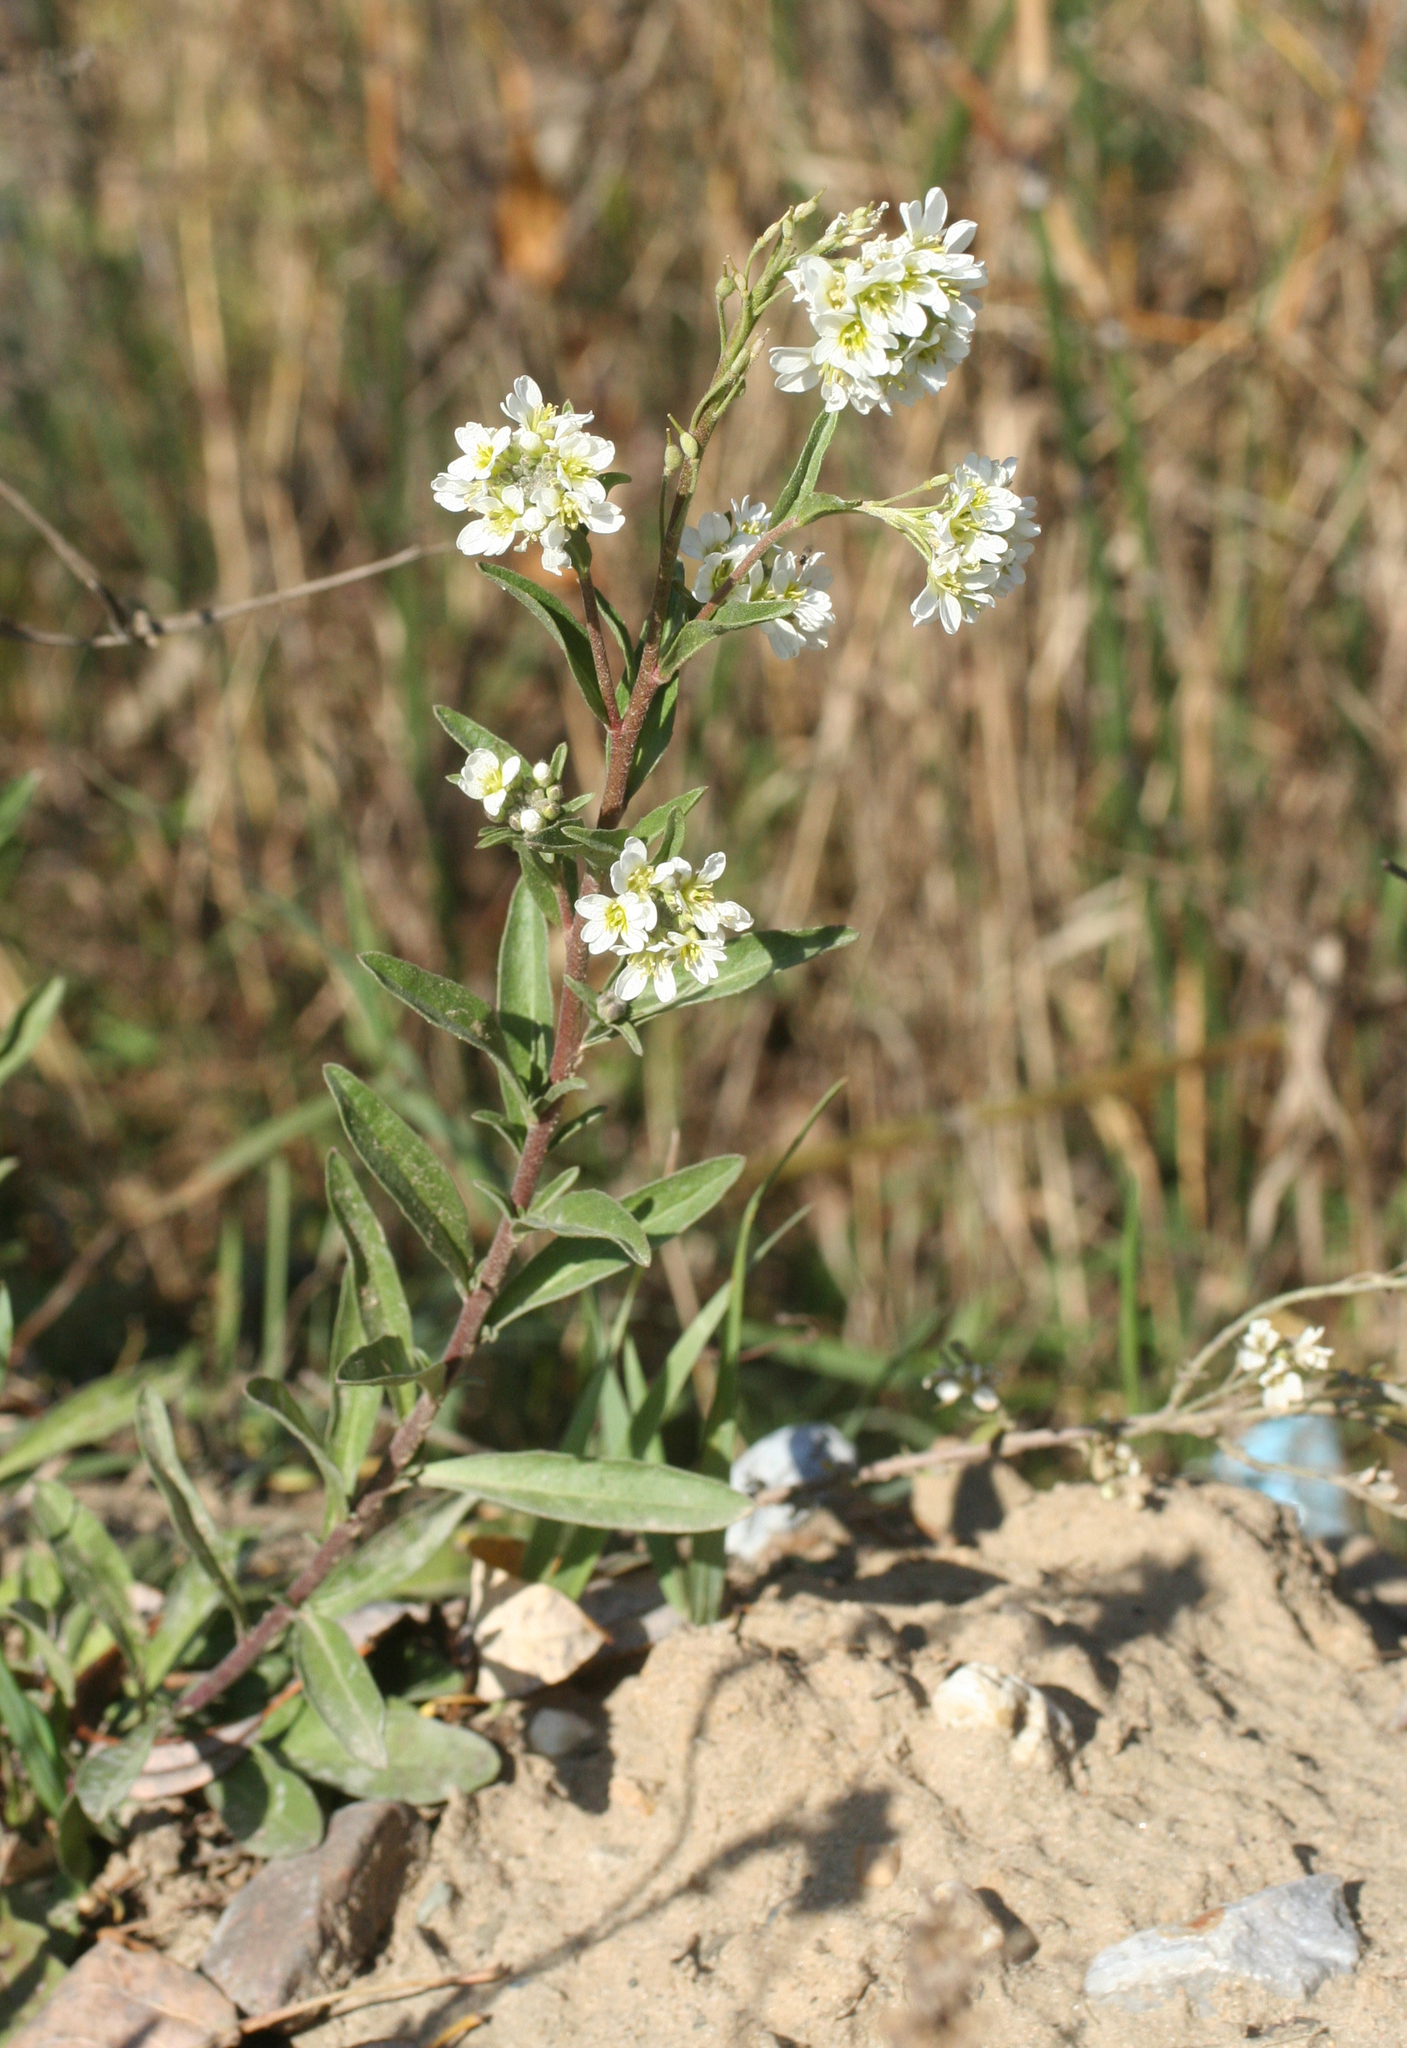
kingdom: Plantae
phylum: Tracheophyta
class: Magnoliopsida
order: Brassicales
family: Brassicaceae
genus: Berteroa
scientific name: Berteroa incana
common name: Hoary alison
